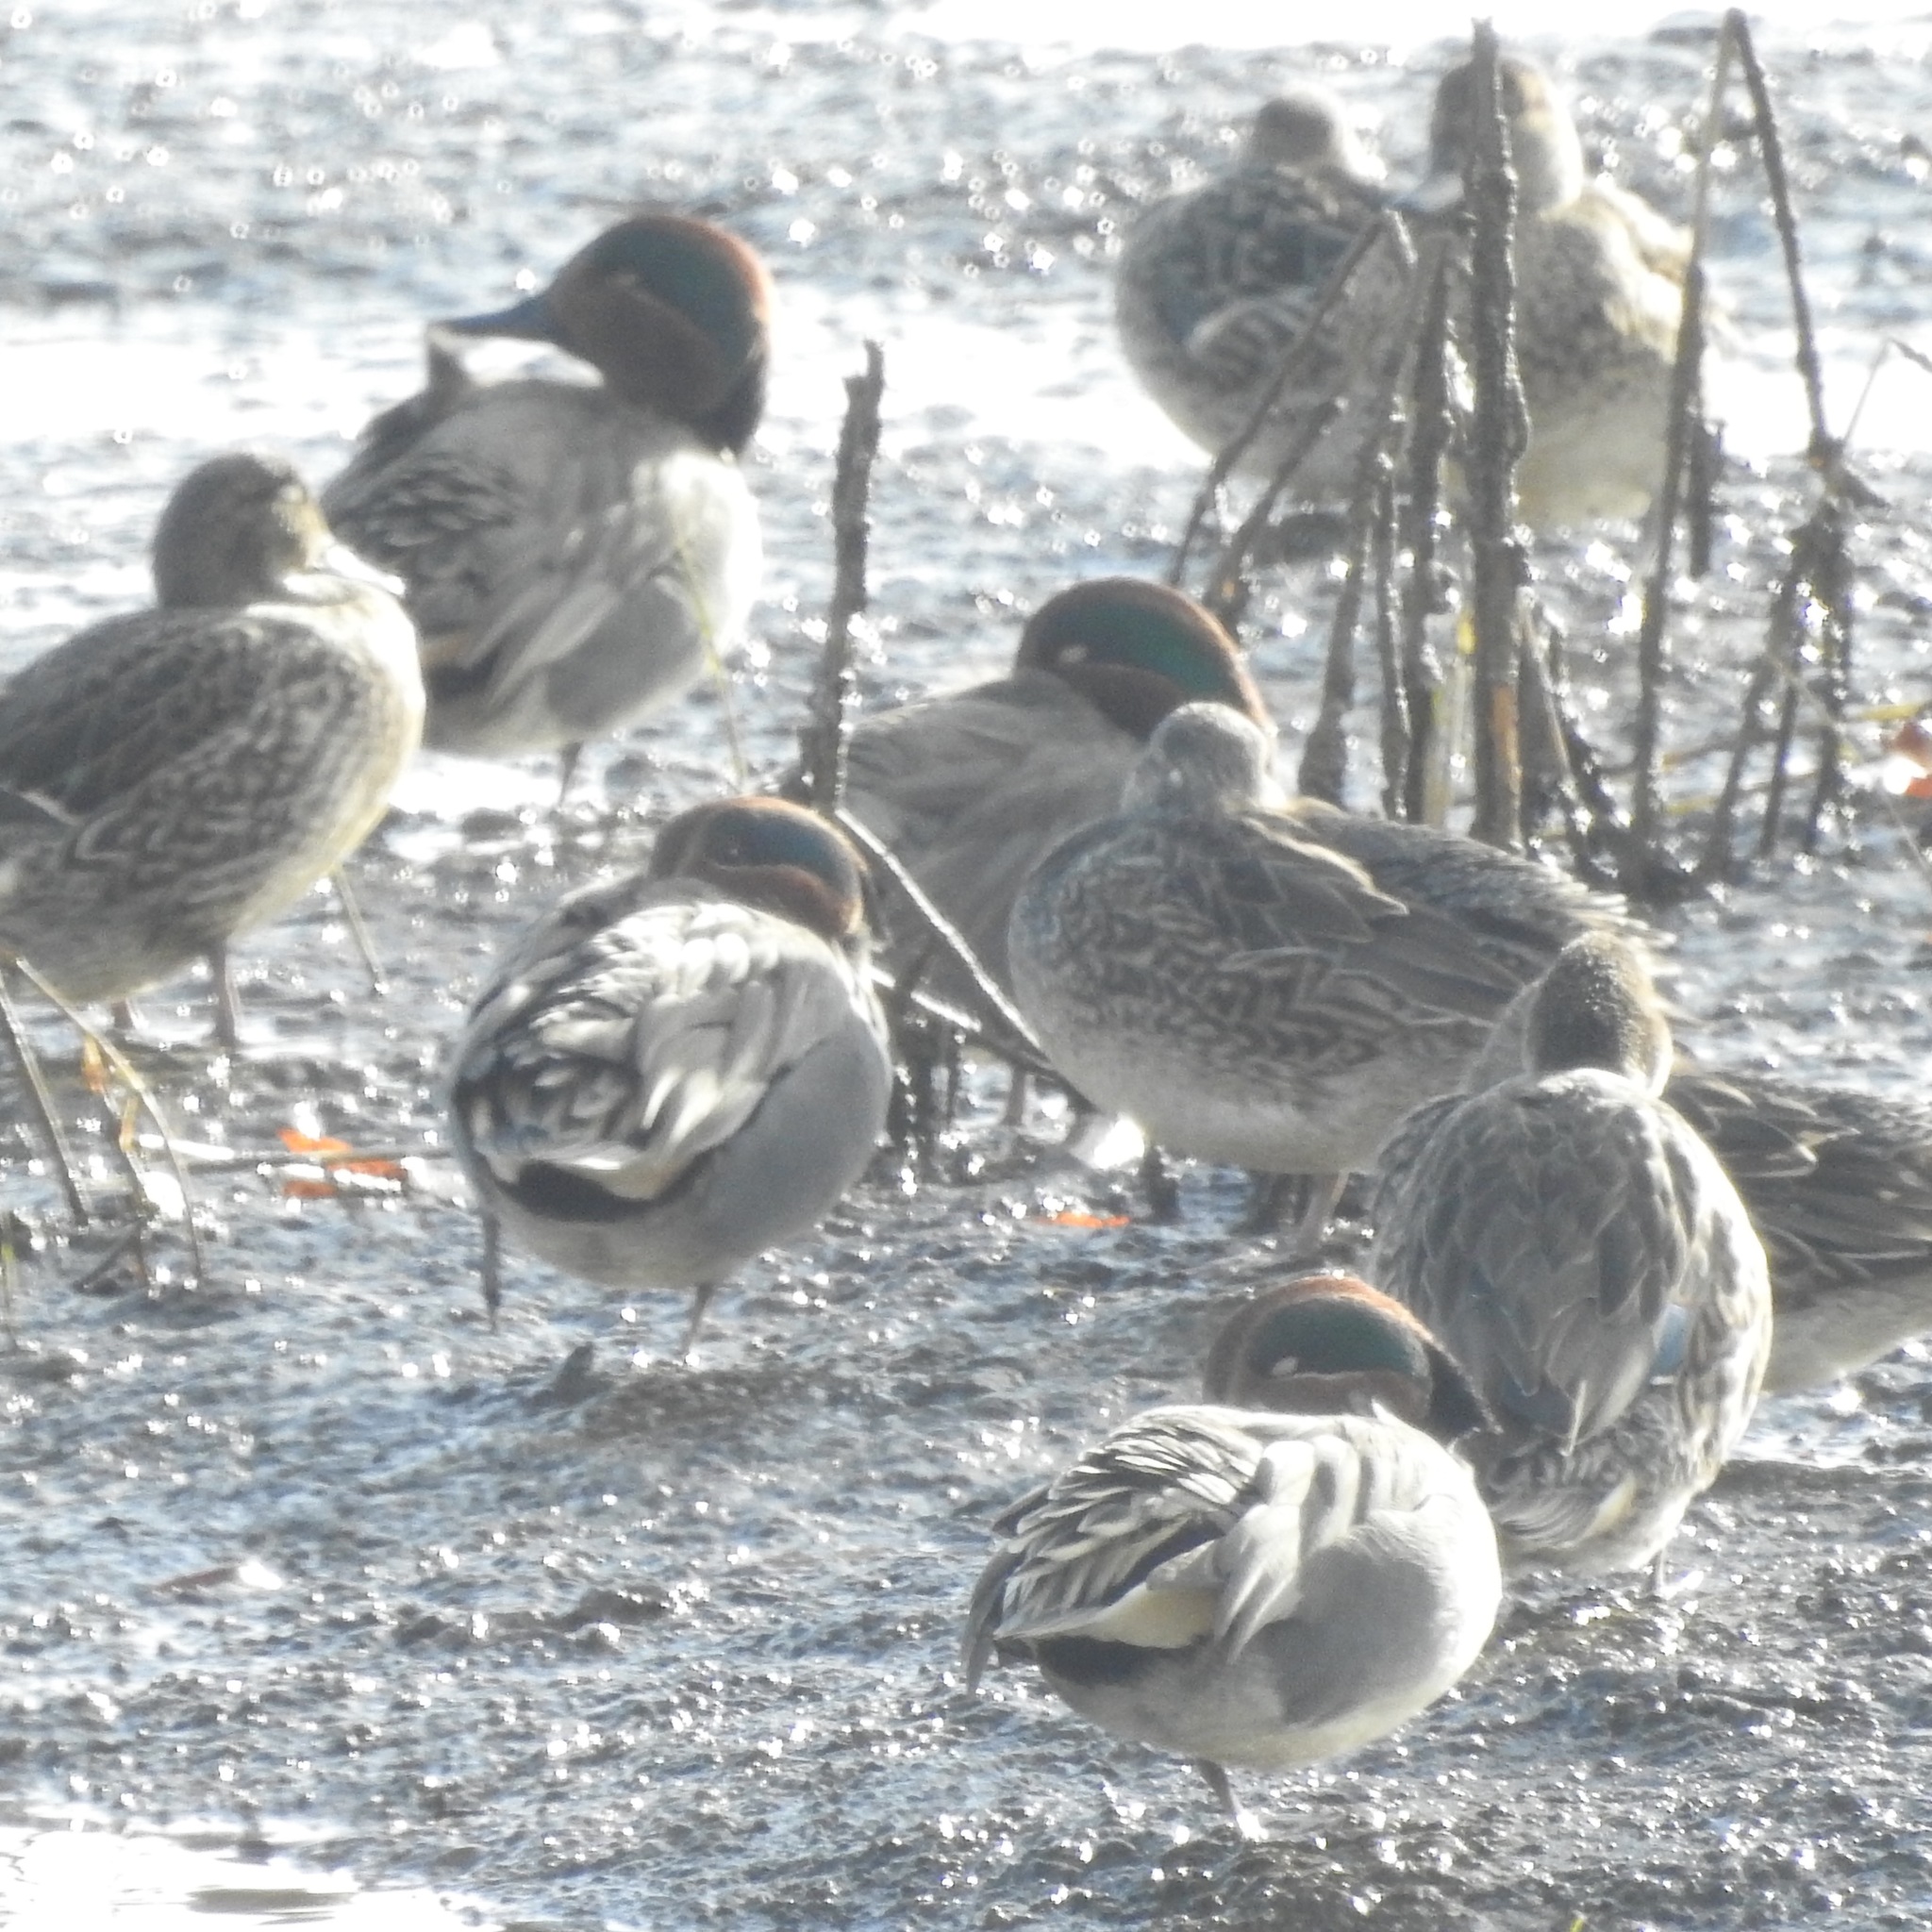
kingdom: Animalia
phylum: Chordata
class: Aves
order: Anseriformes
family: Anatidae
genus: Anas
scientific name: Anas crecca
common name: Eurasian teal
